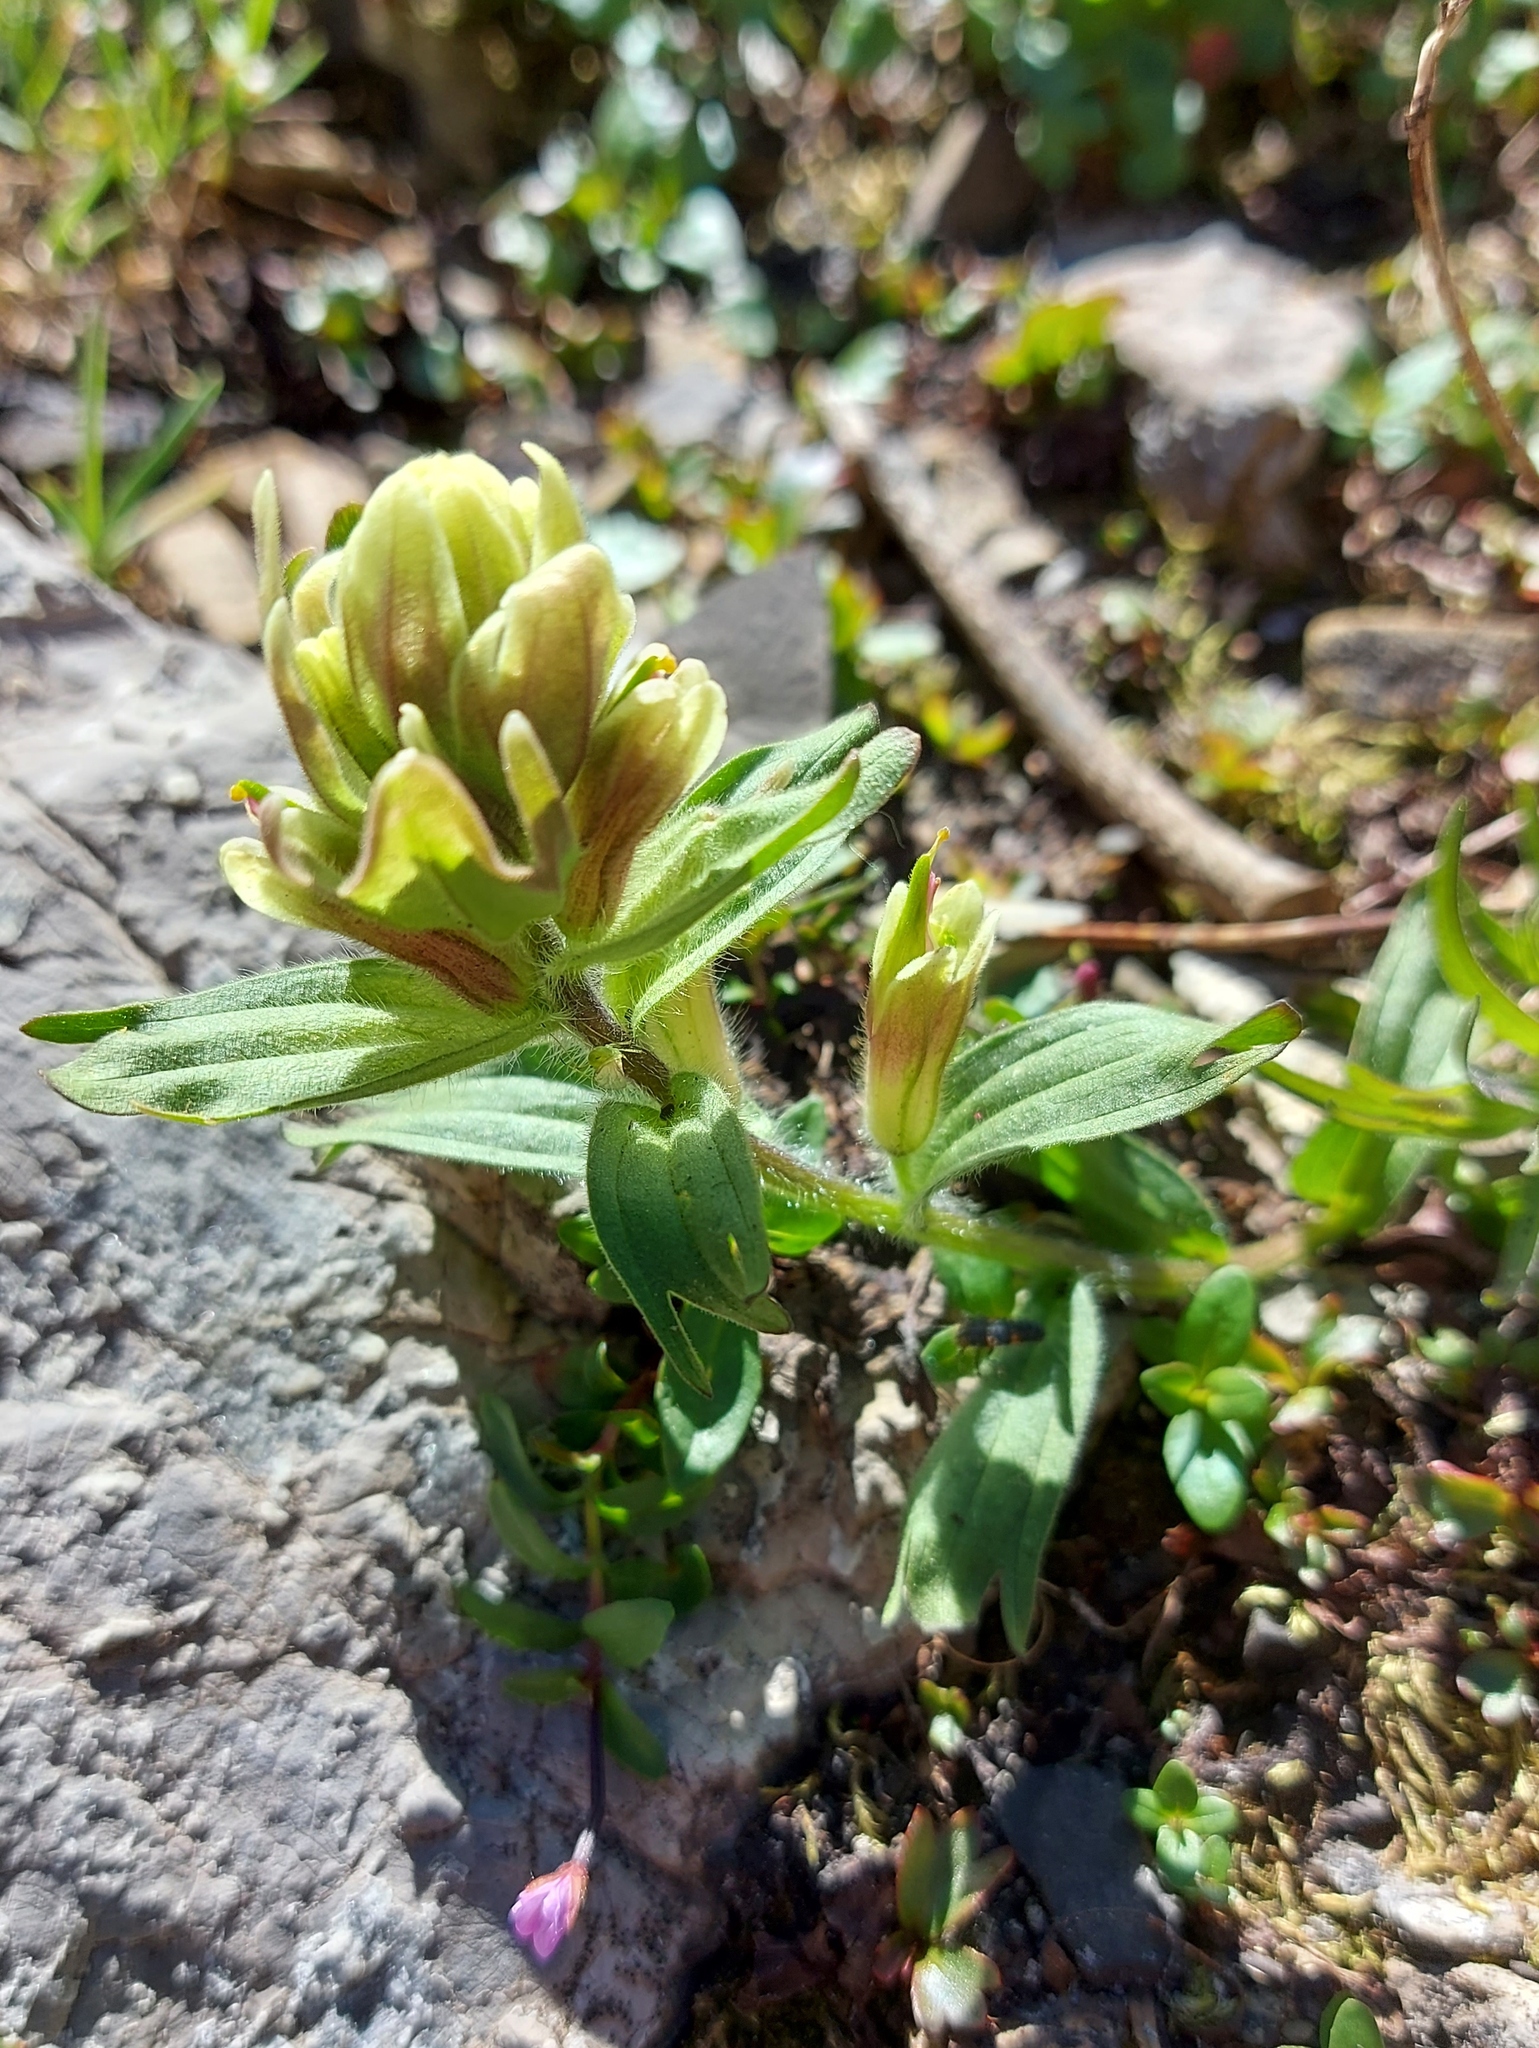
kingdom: Plantae
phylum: Tracheophyta
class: Magnoliopsida
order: Lamiales
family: Orobanchaceae
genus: Castilleja
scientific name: Castilleja occidentalis
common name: Western paintbrush
